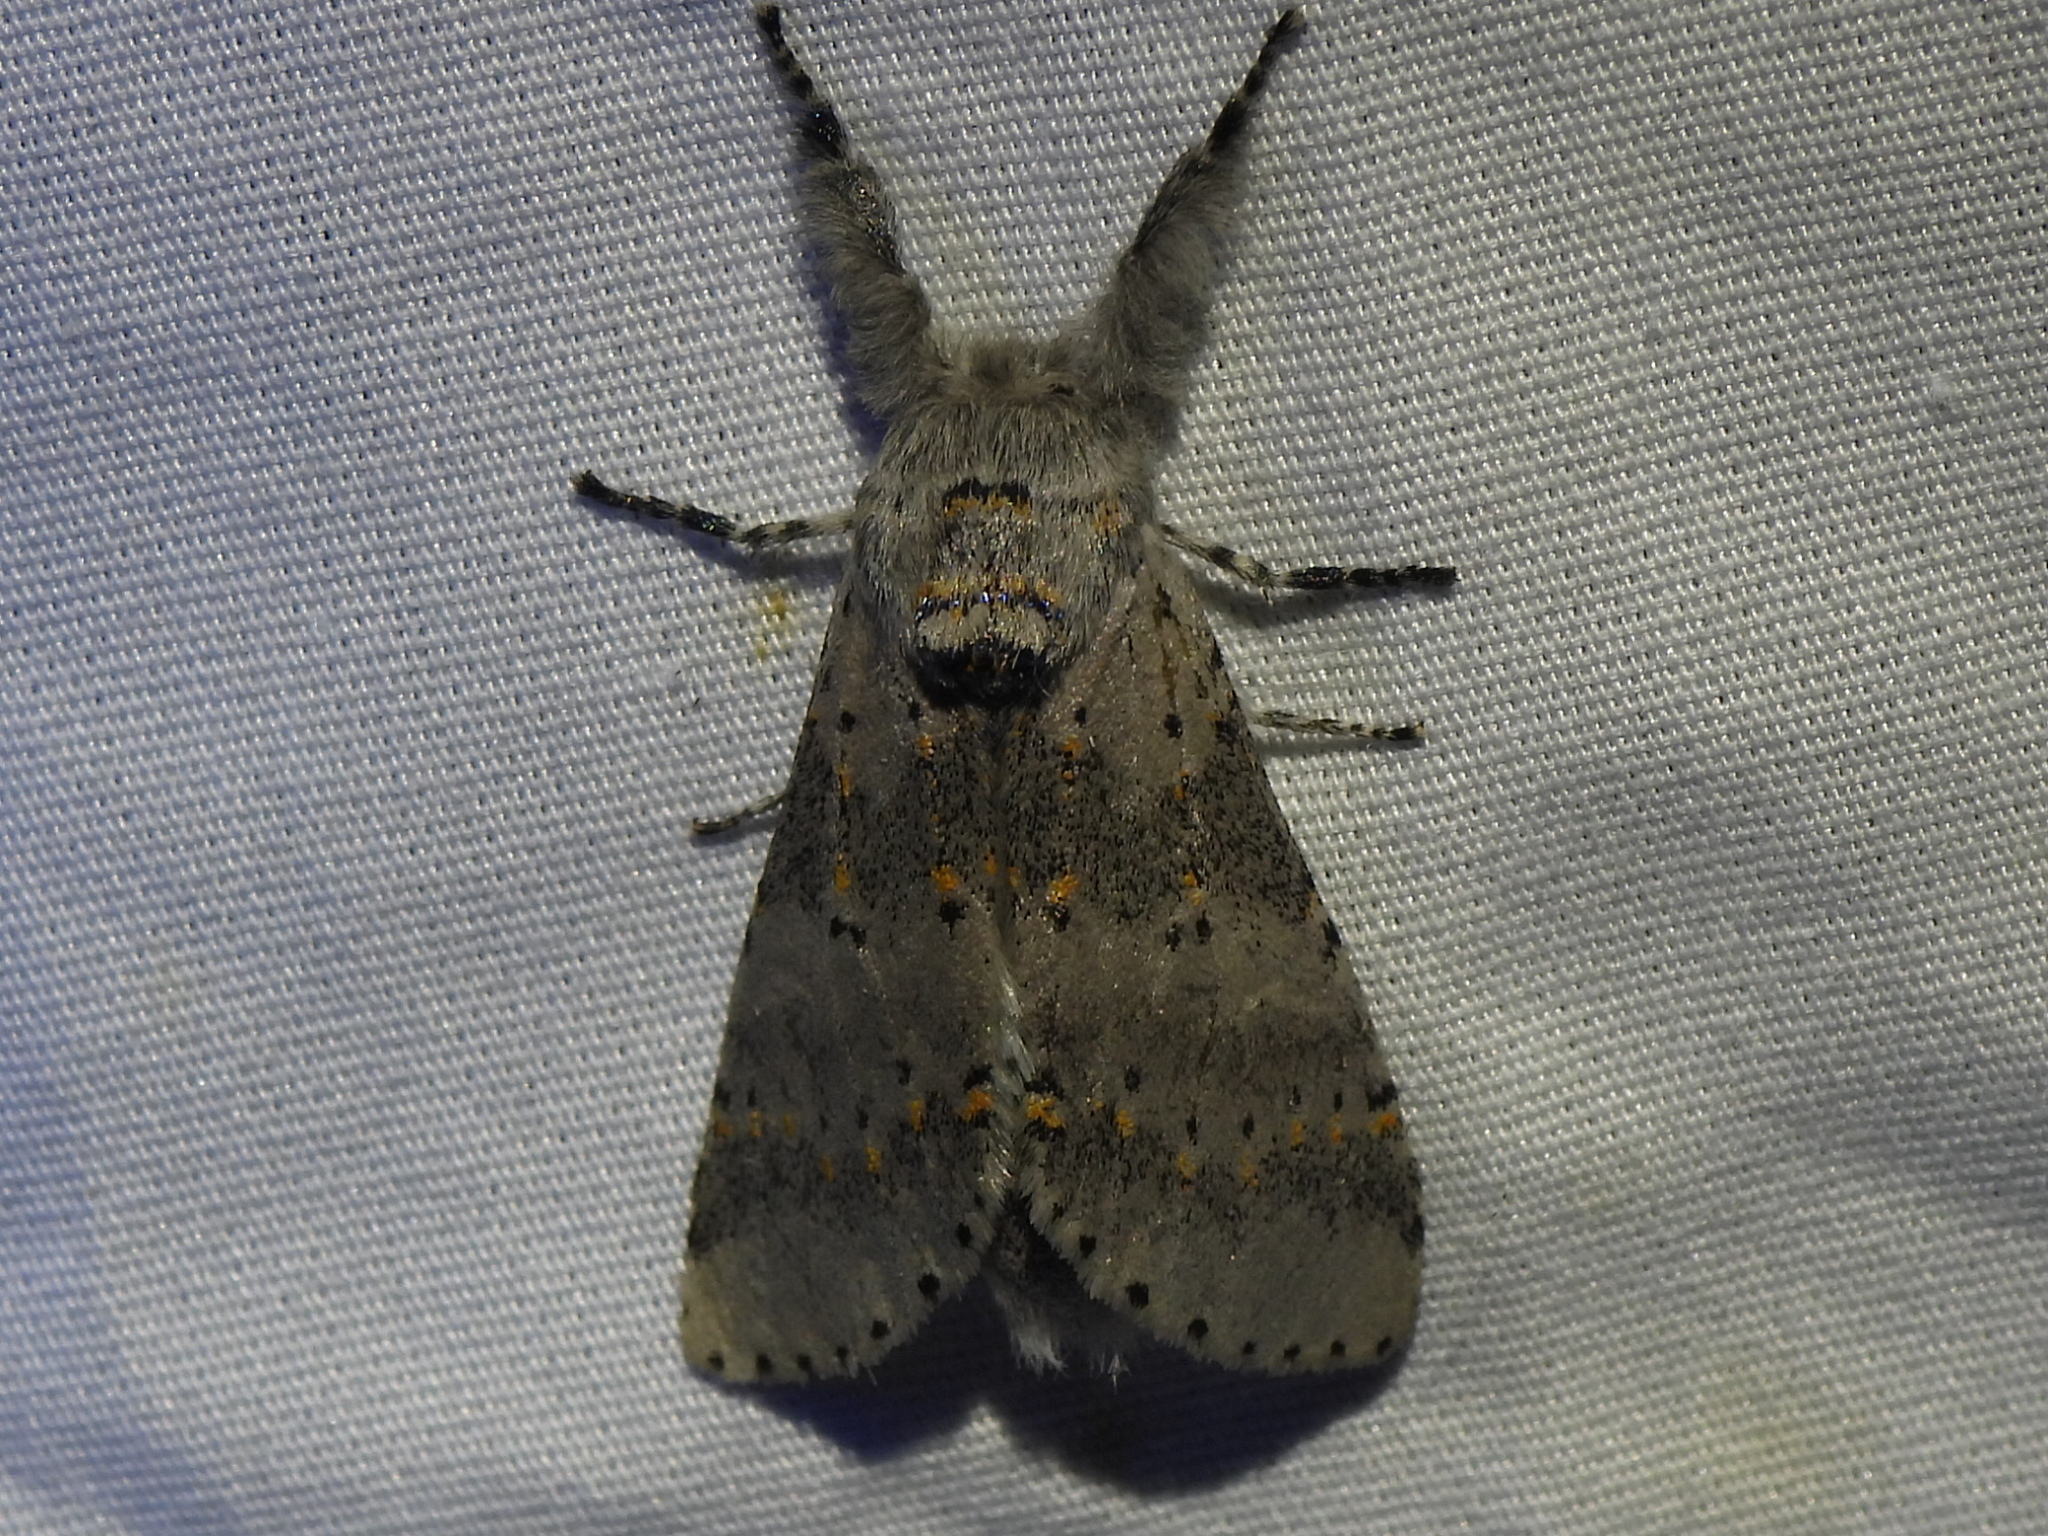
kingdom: Animalia
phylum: Arthropoda
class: Insecta
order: Lepidoptera
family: Notodontidae
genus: Furcula
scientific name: Furcula cinerea
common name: Gray furcula
